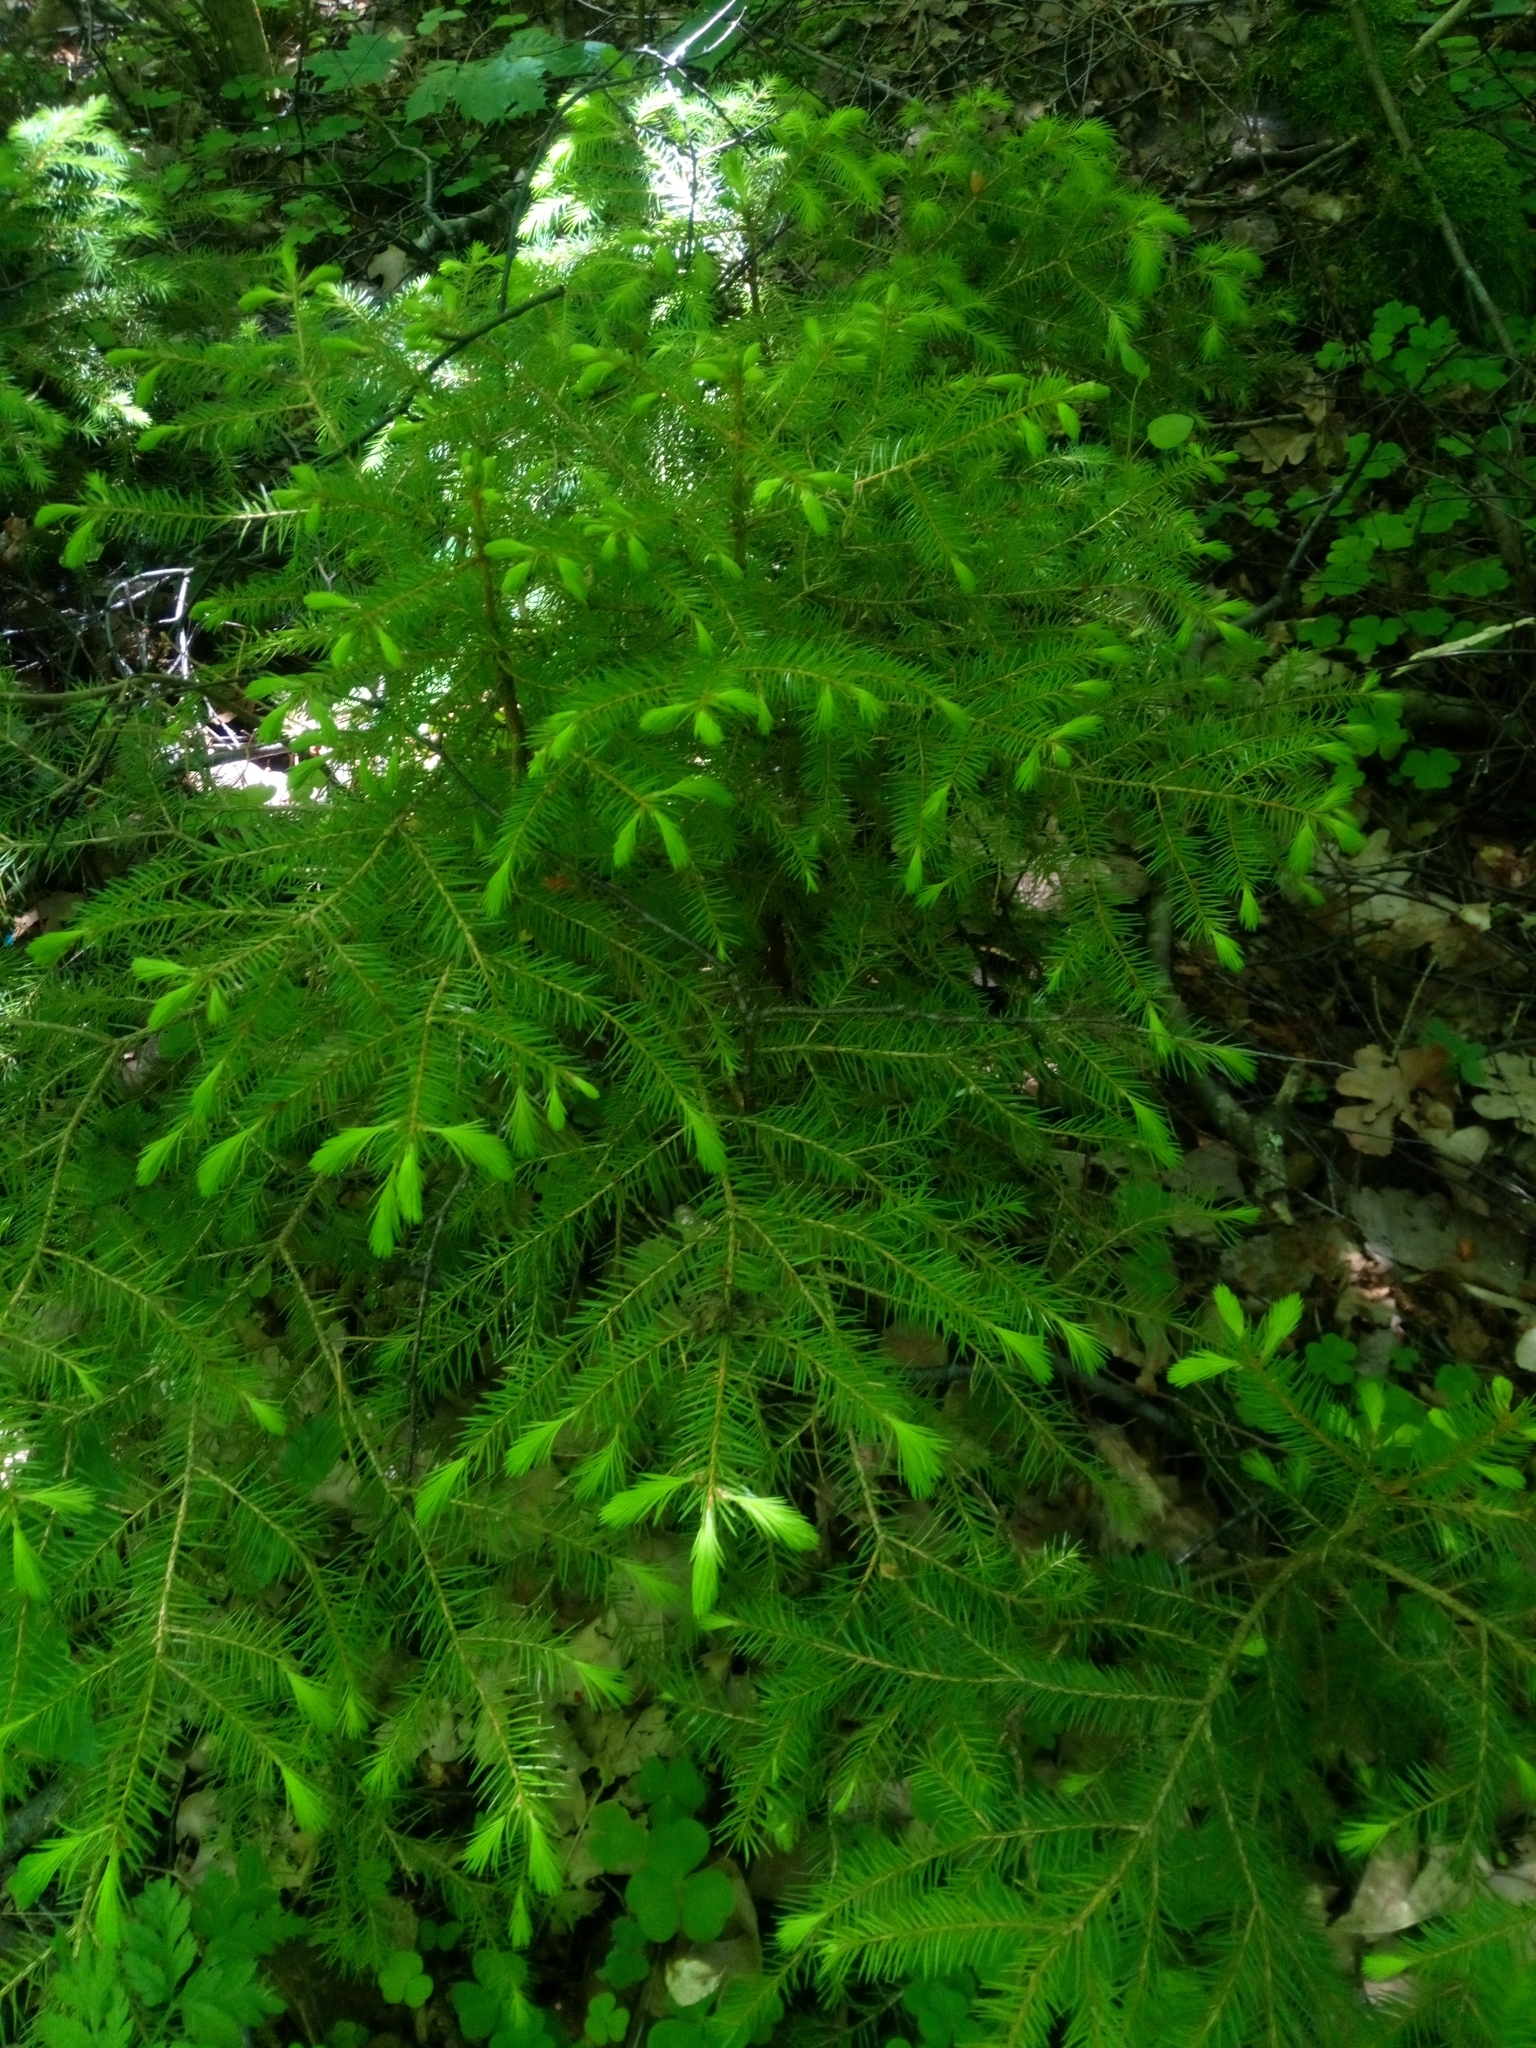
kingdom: Plantae
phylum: Tracheophyta
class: Pinopsida
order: Pinales
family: Pinaceae
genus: Picea
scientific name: Picea abies
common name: Norway spruce
